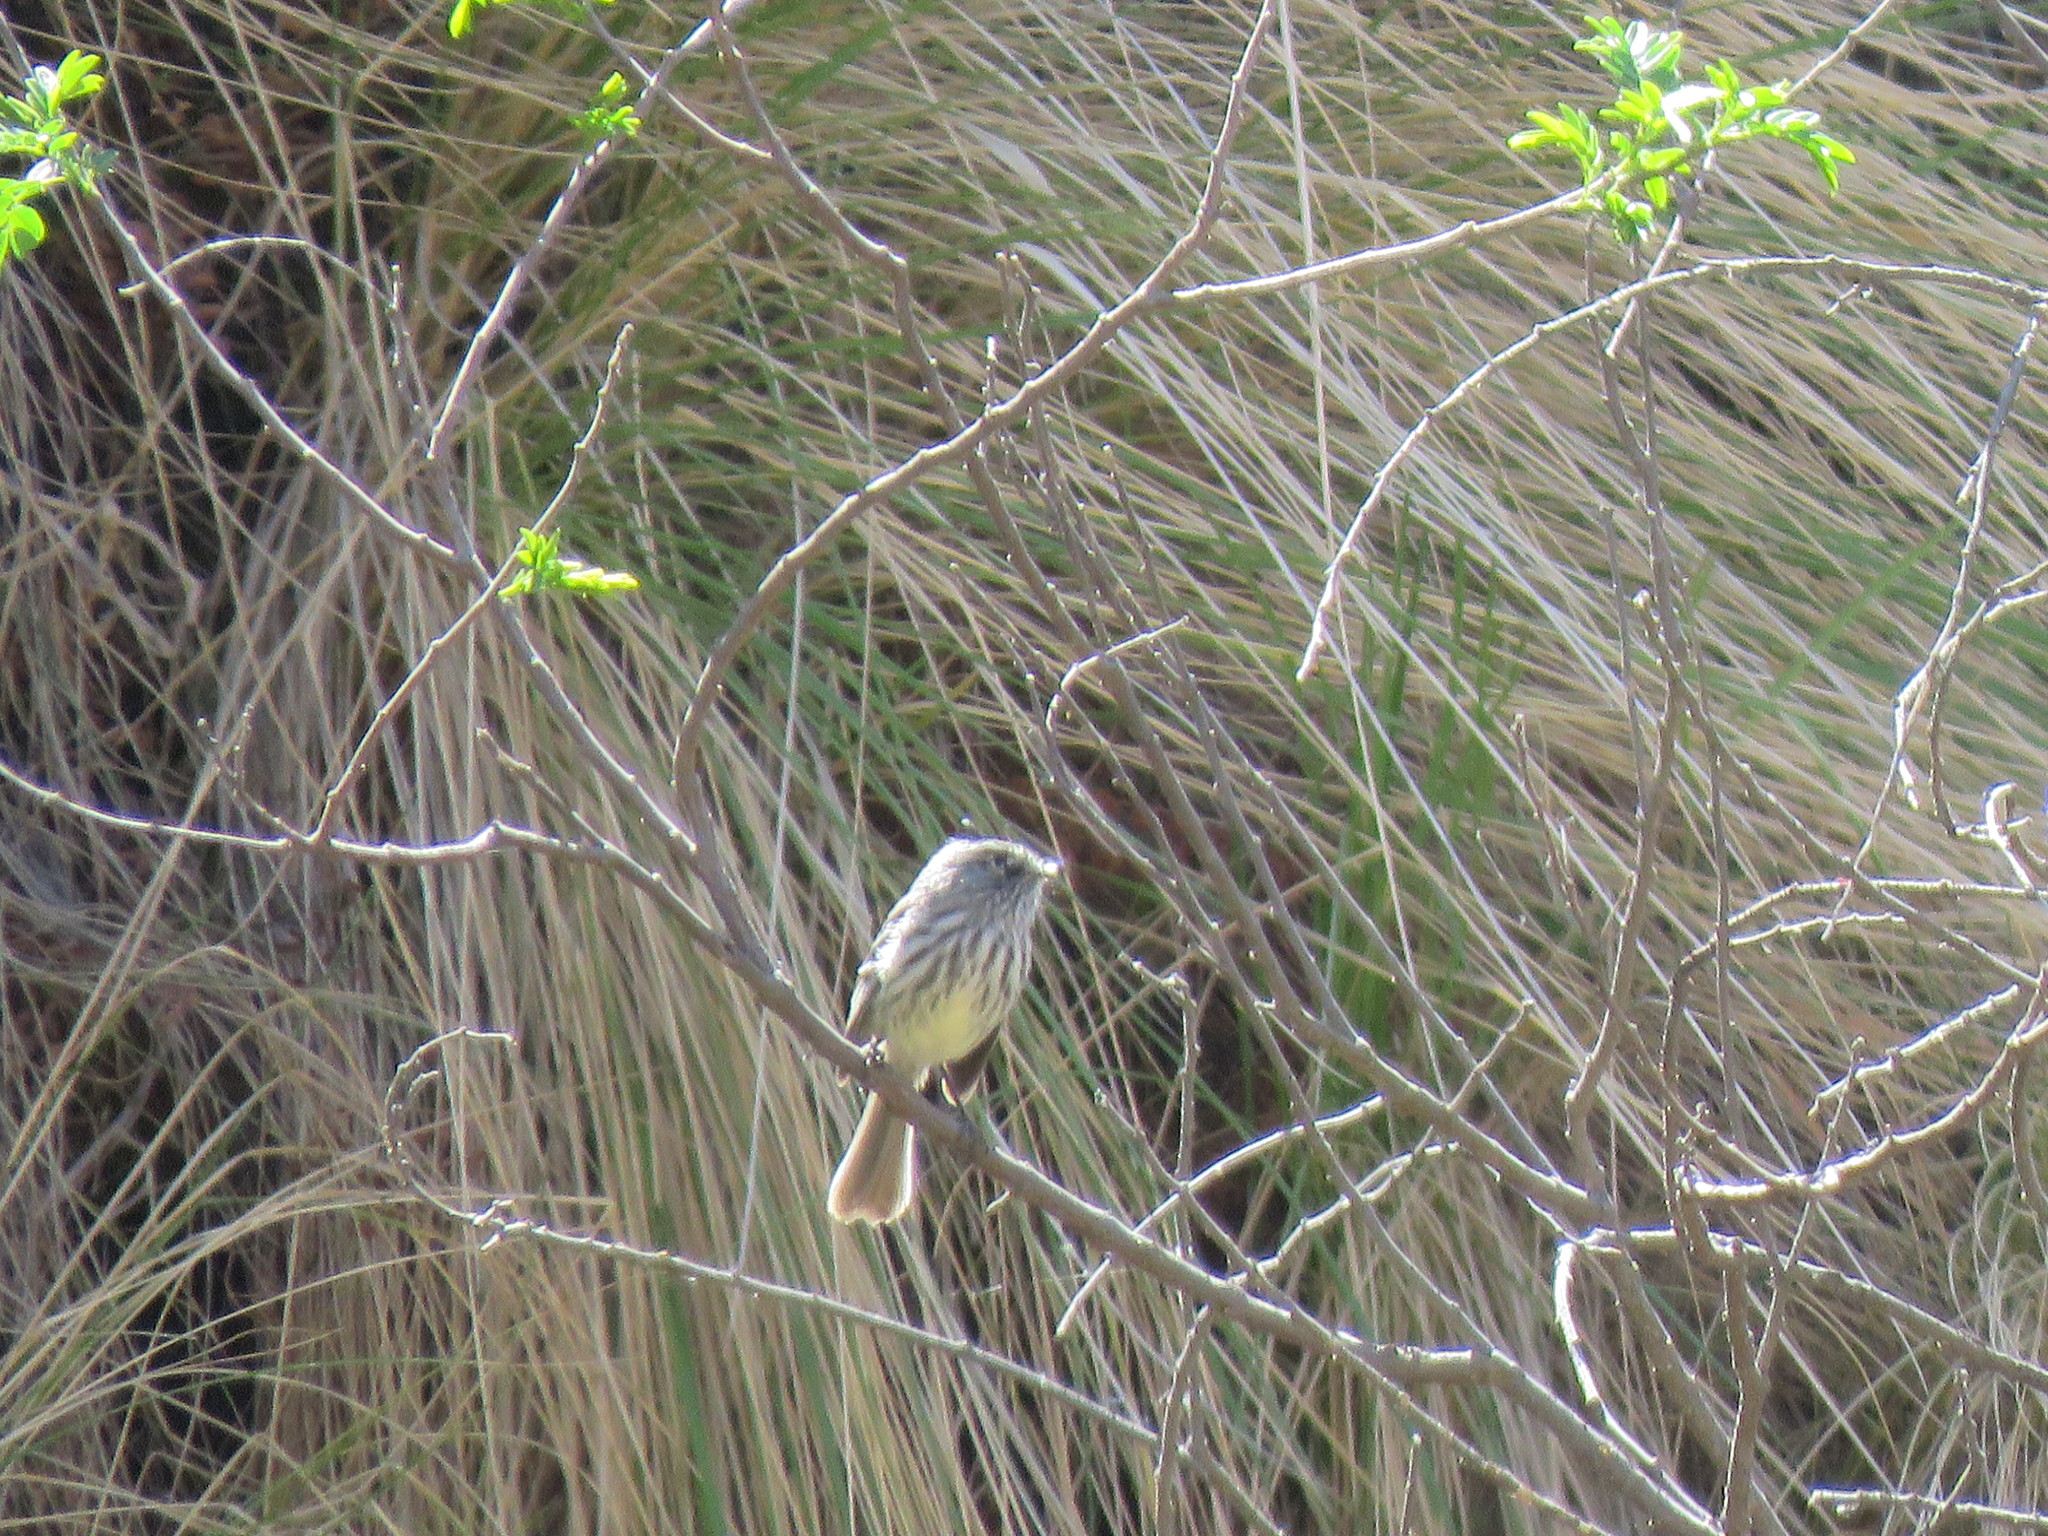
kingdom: Animalia
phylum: Chordata
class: Aves
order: Passeriformes
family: Tyrannidae
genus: Anairetes
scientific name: Anairetes parulus
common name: Tufted tit-tyrant
